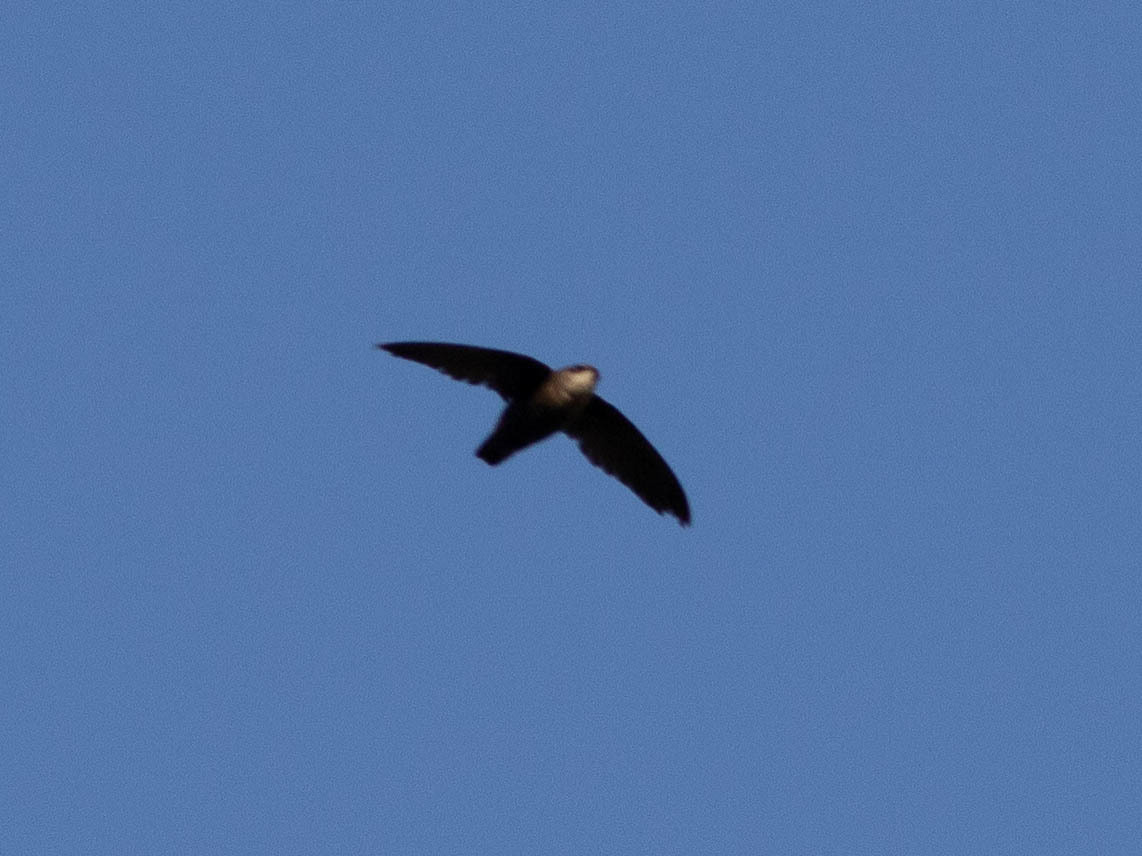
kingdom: Animalia
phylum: Chordata
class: Aves
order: Apodiformes
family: Apodidae
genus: Chaetura
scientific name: Chaetura pelagica
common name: Chimney swift
